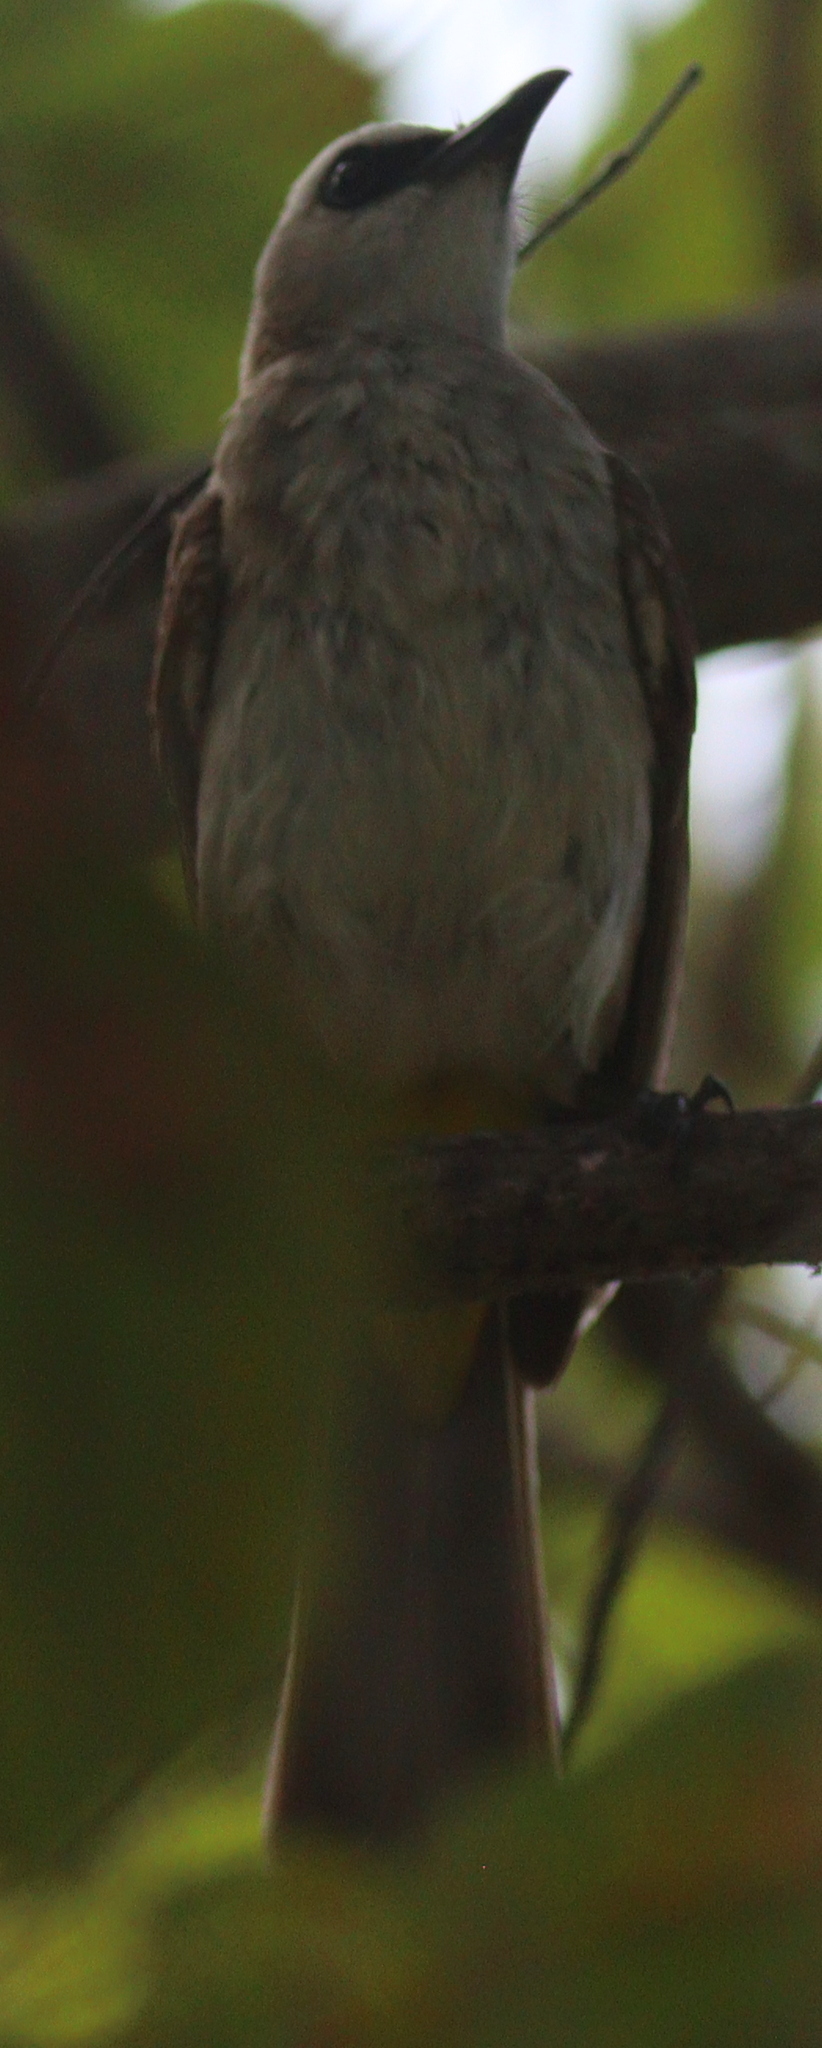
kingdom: Animalia
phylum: Chordata
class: Aves
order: Passeriformes
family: Pycnonotidae
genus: Pycnonotus
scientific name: Pycnonotus goiavier
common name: Yellow-vented bulbul
